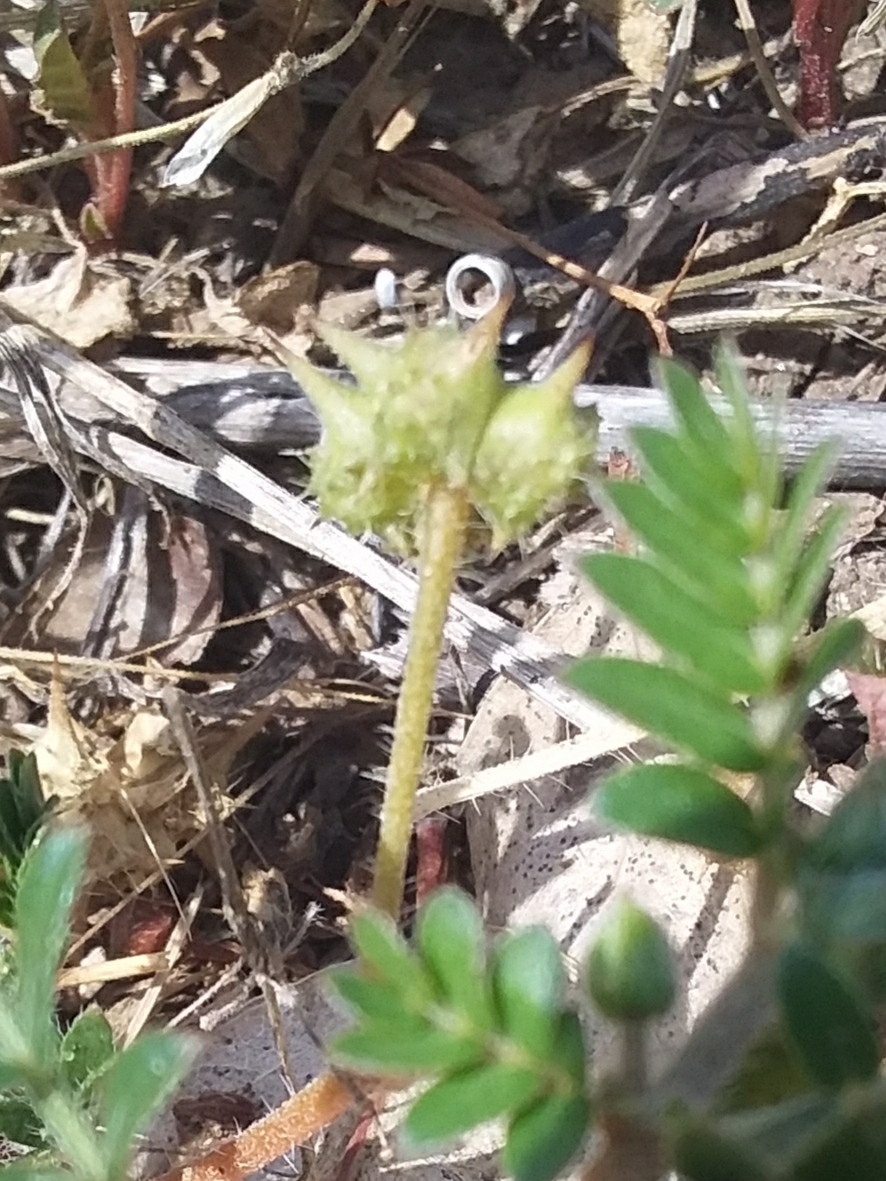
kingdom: Plantae
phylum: Tracheophyta
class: Magnoliopsida
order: Zygophyllales
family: Zygophyllaceae
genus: Tribulus
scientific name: Tribulus terrestris
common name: Puncturevine
